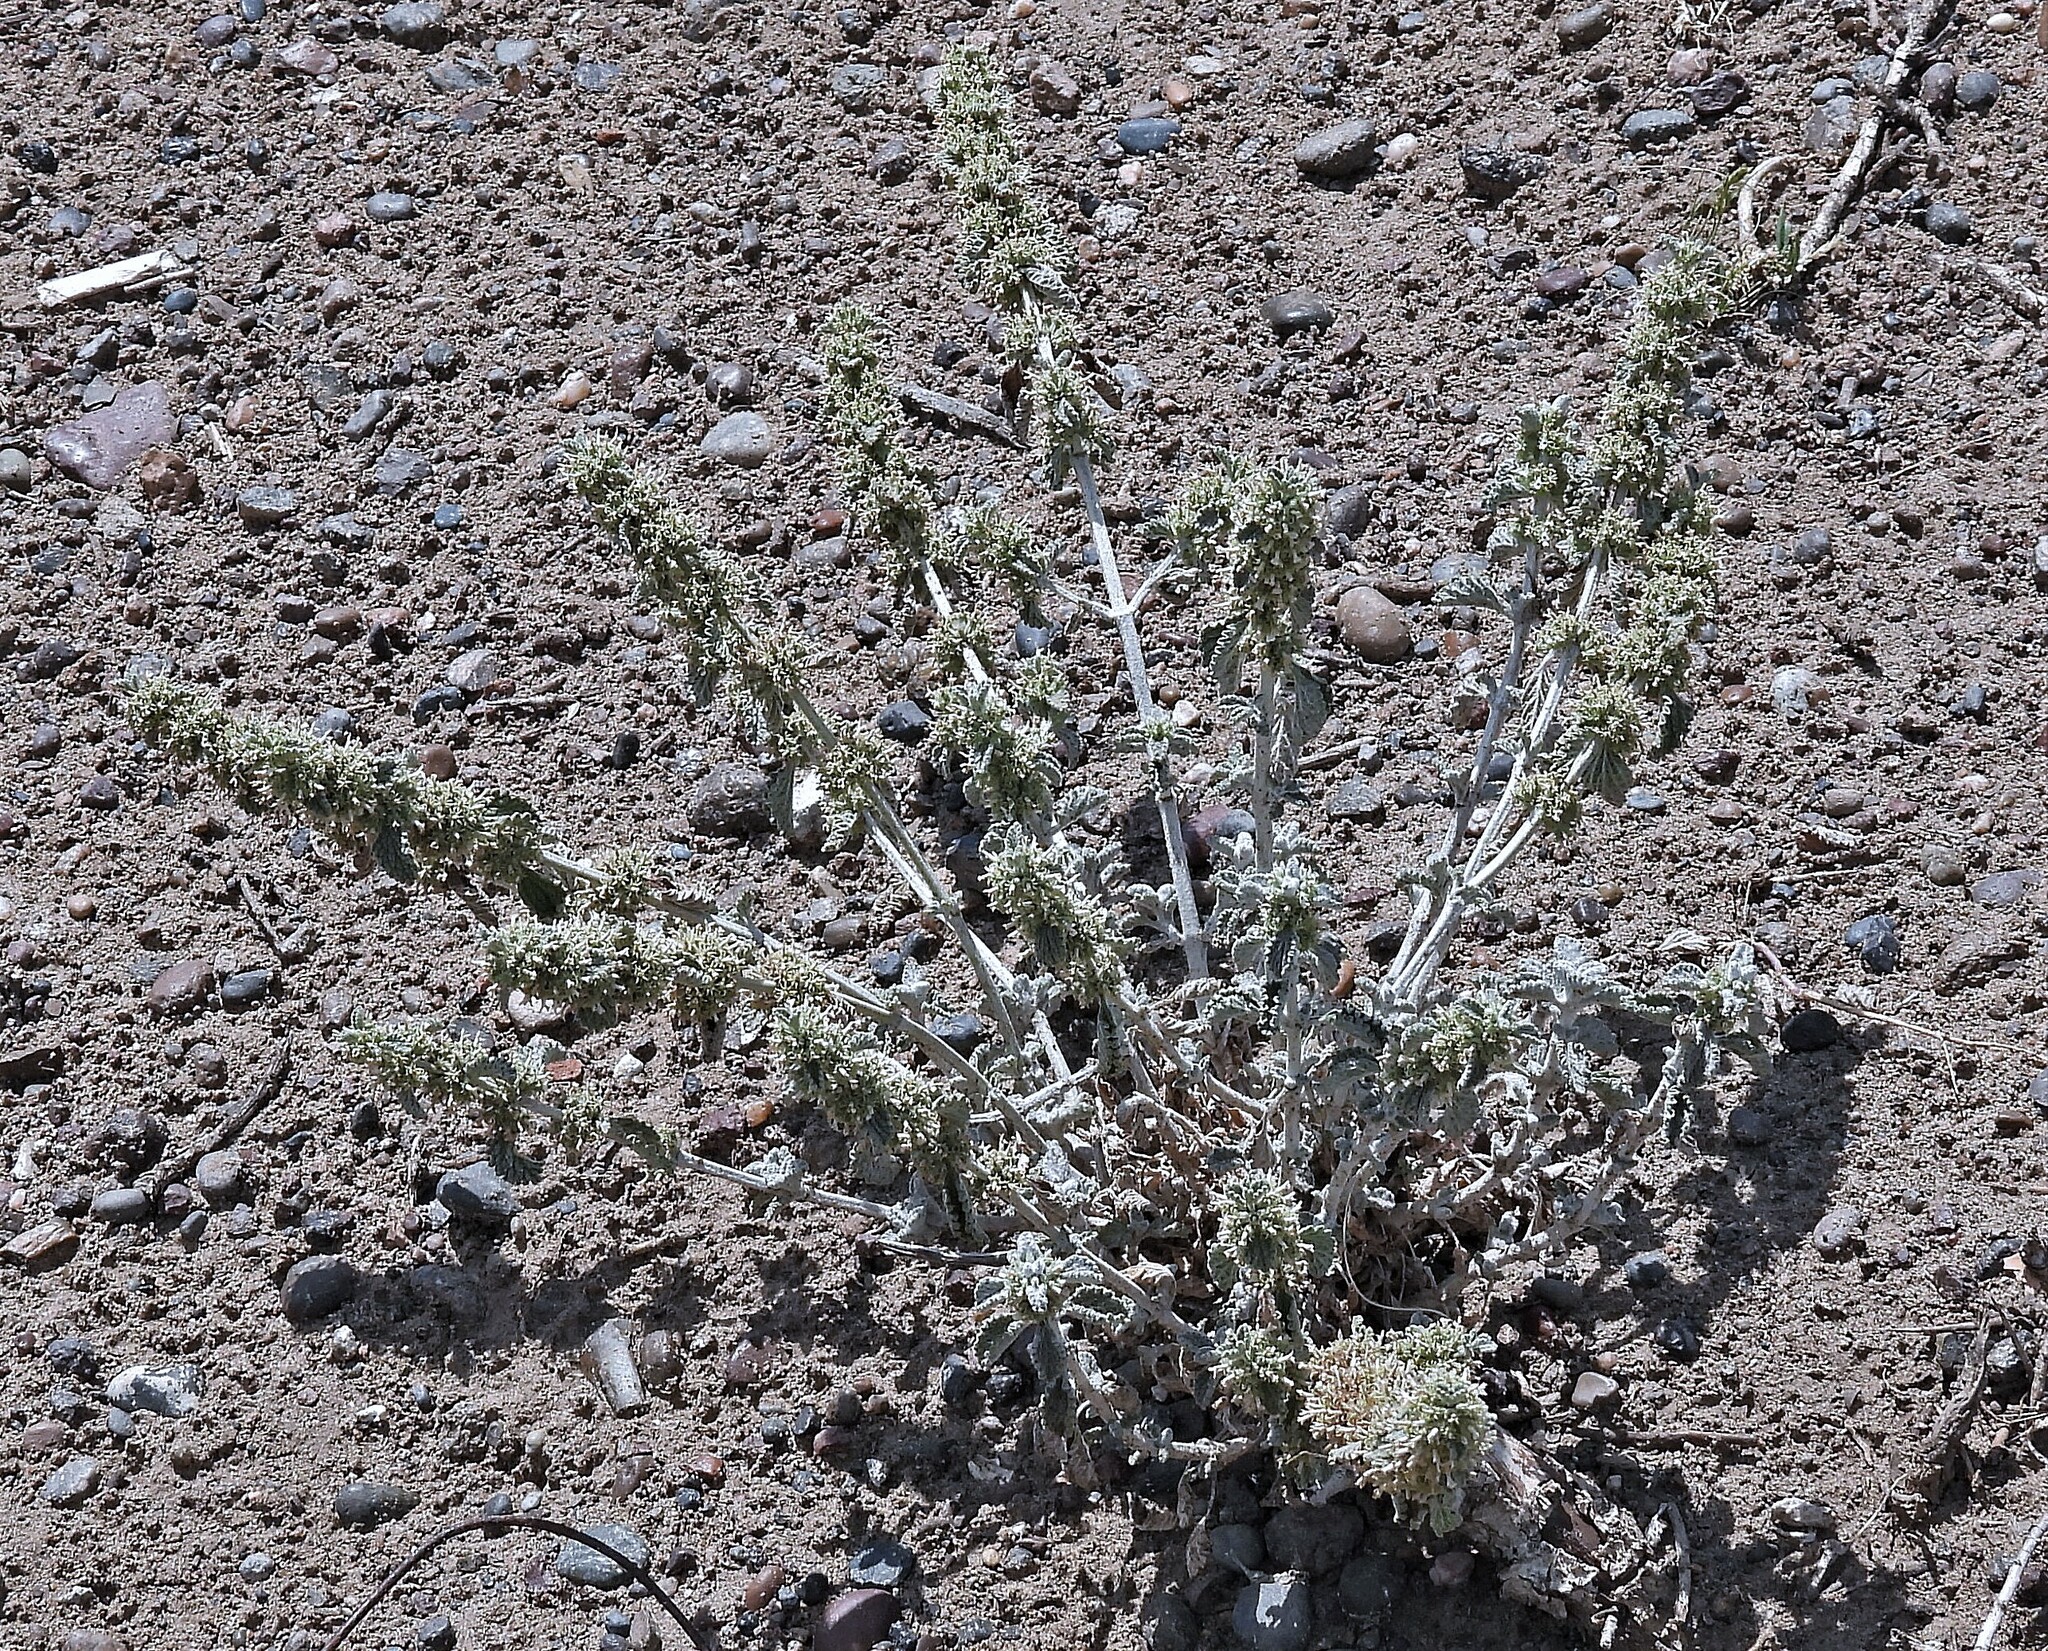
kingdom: Plantae
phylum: Tracheophyta
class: Magnoliopsida
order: Lamiales
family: Lamiaceae
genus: Marrubium
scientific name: Marrubium vulgare
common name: Horehound
